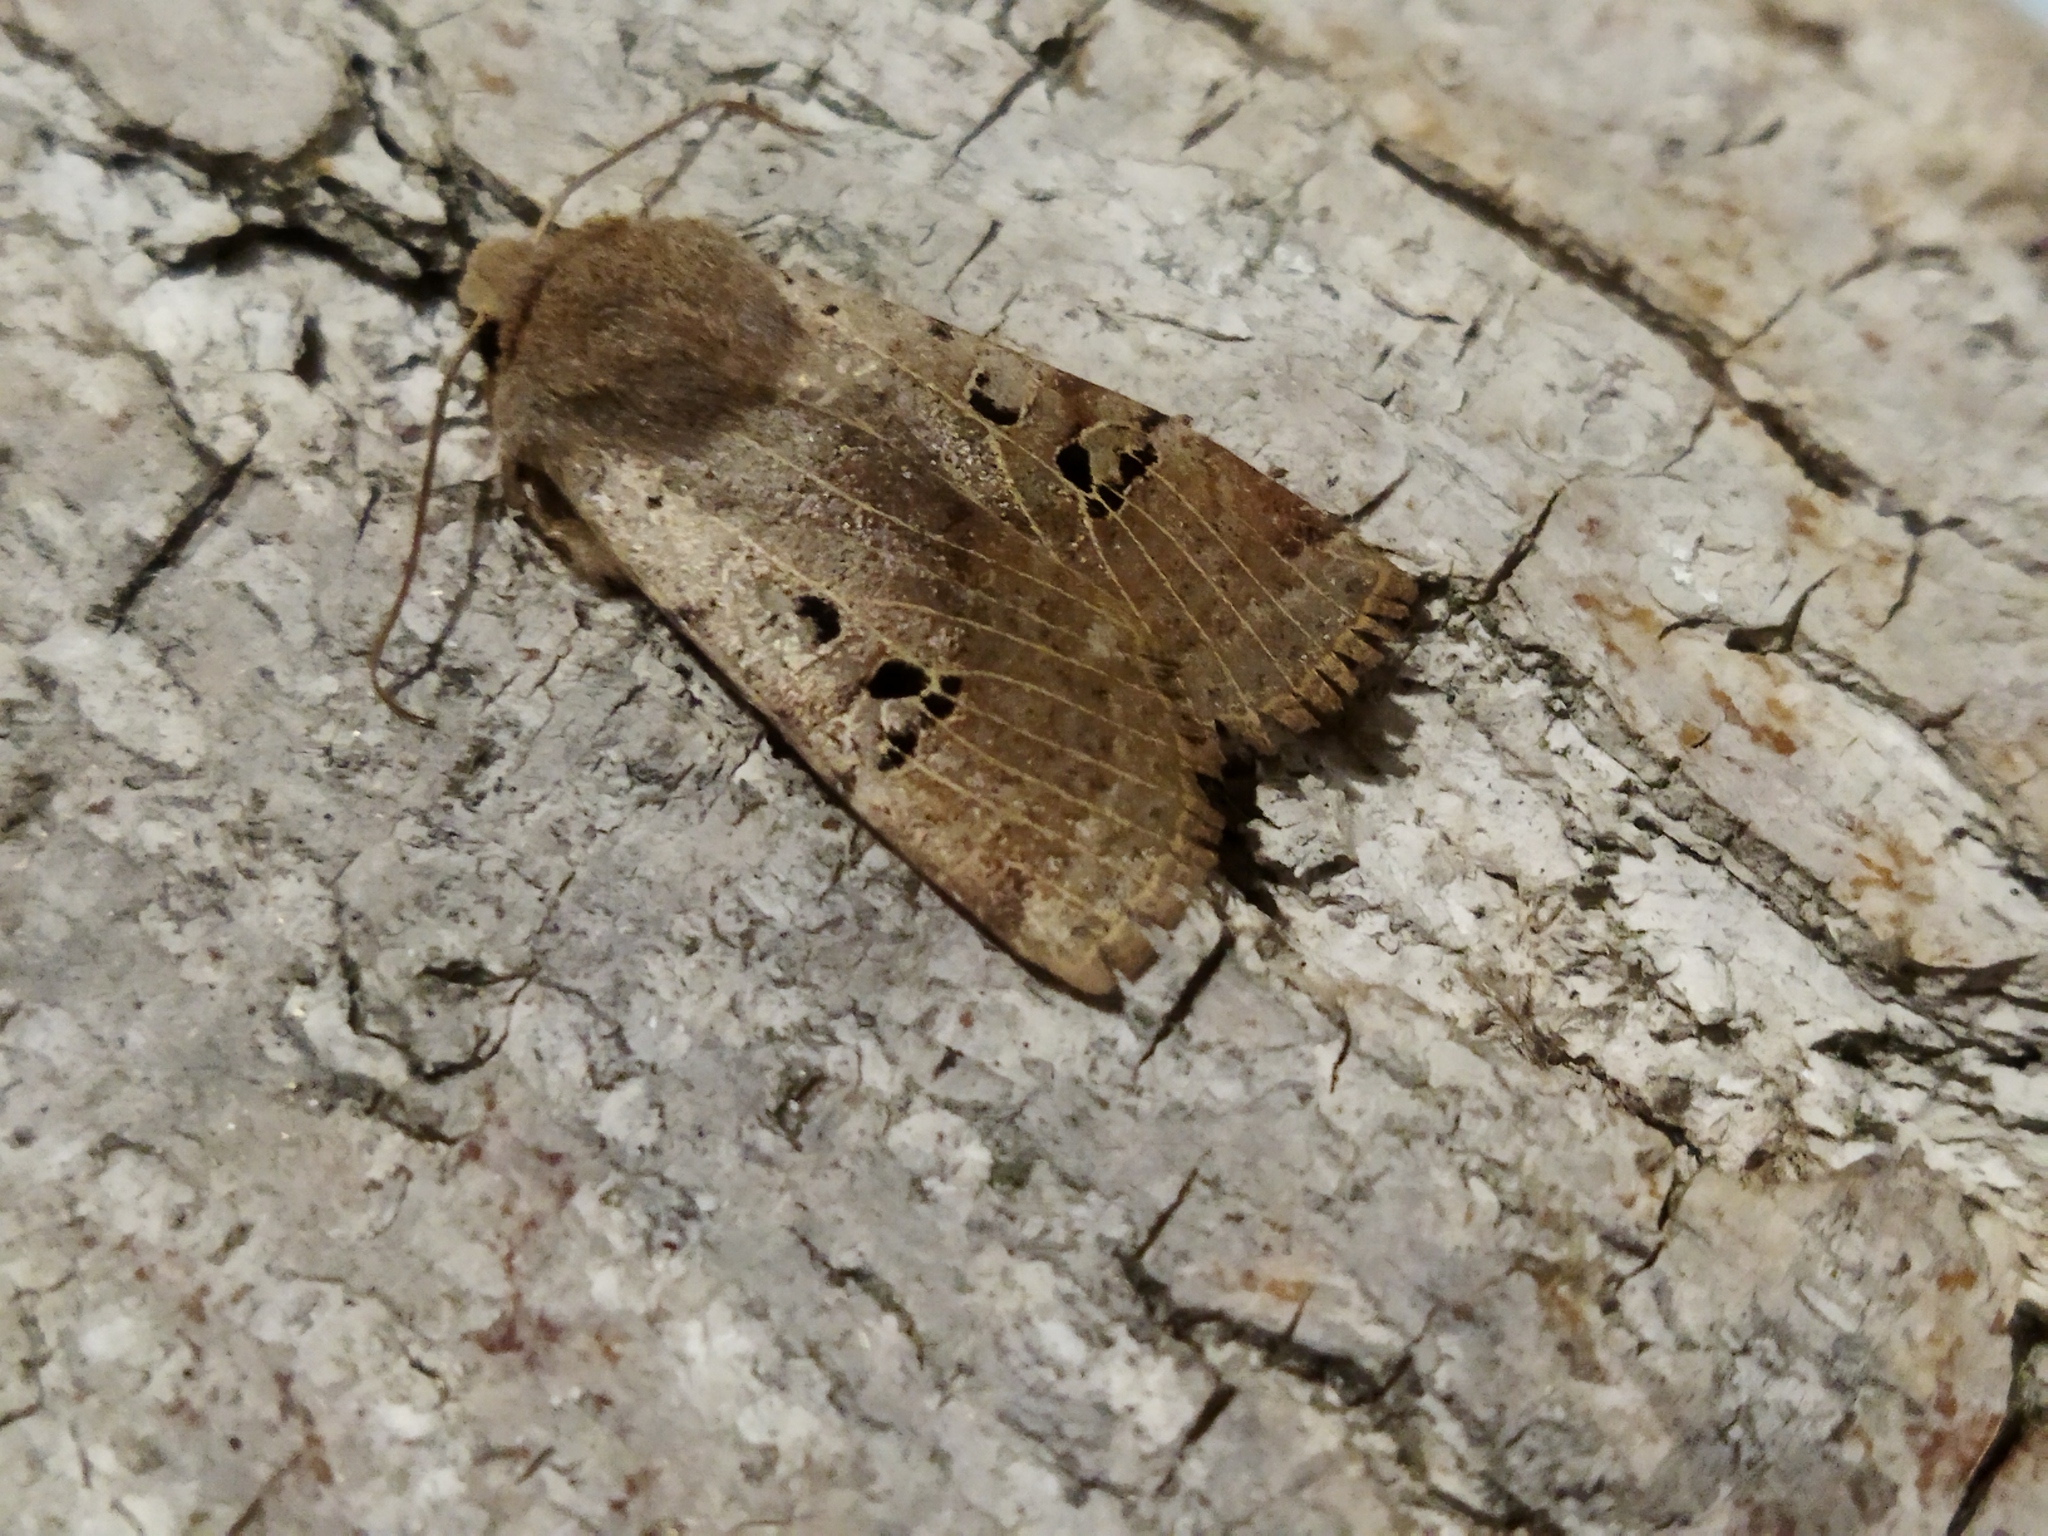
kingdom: Animalia
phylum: Arthropoda
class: Insecta
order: Lepidoptera
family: Noctuidae
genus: Conistra
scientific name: Conistra rubiginosa
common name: Black-spotted chestnut
